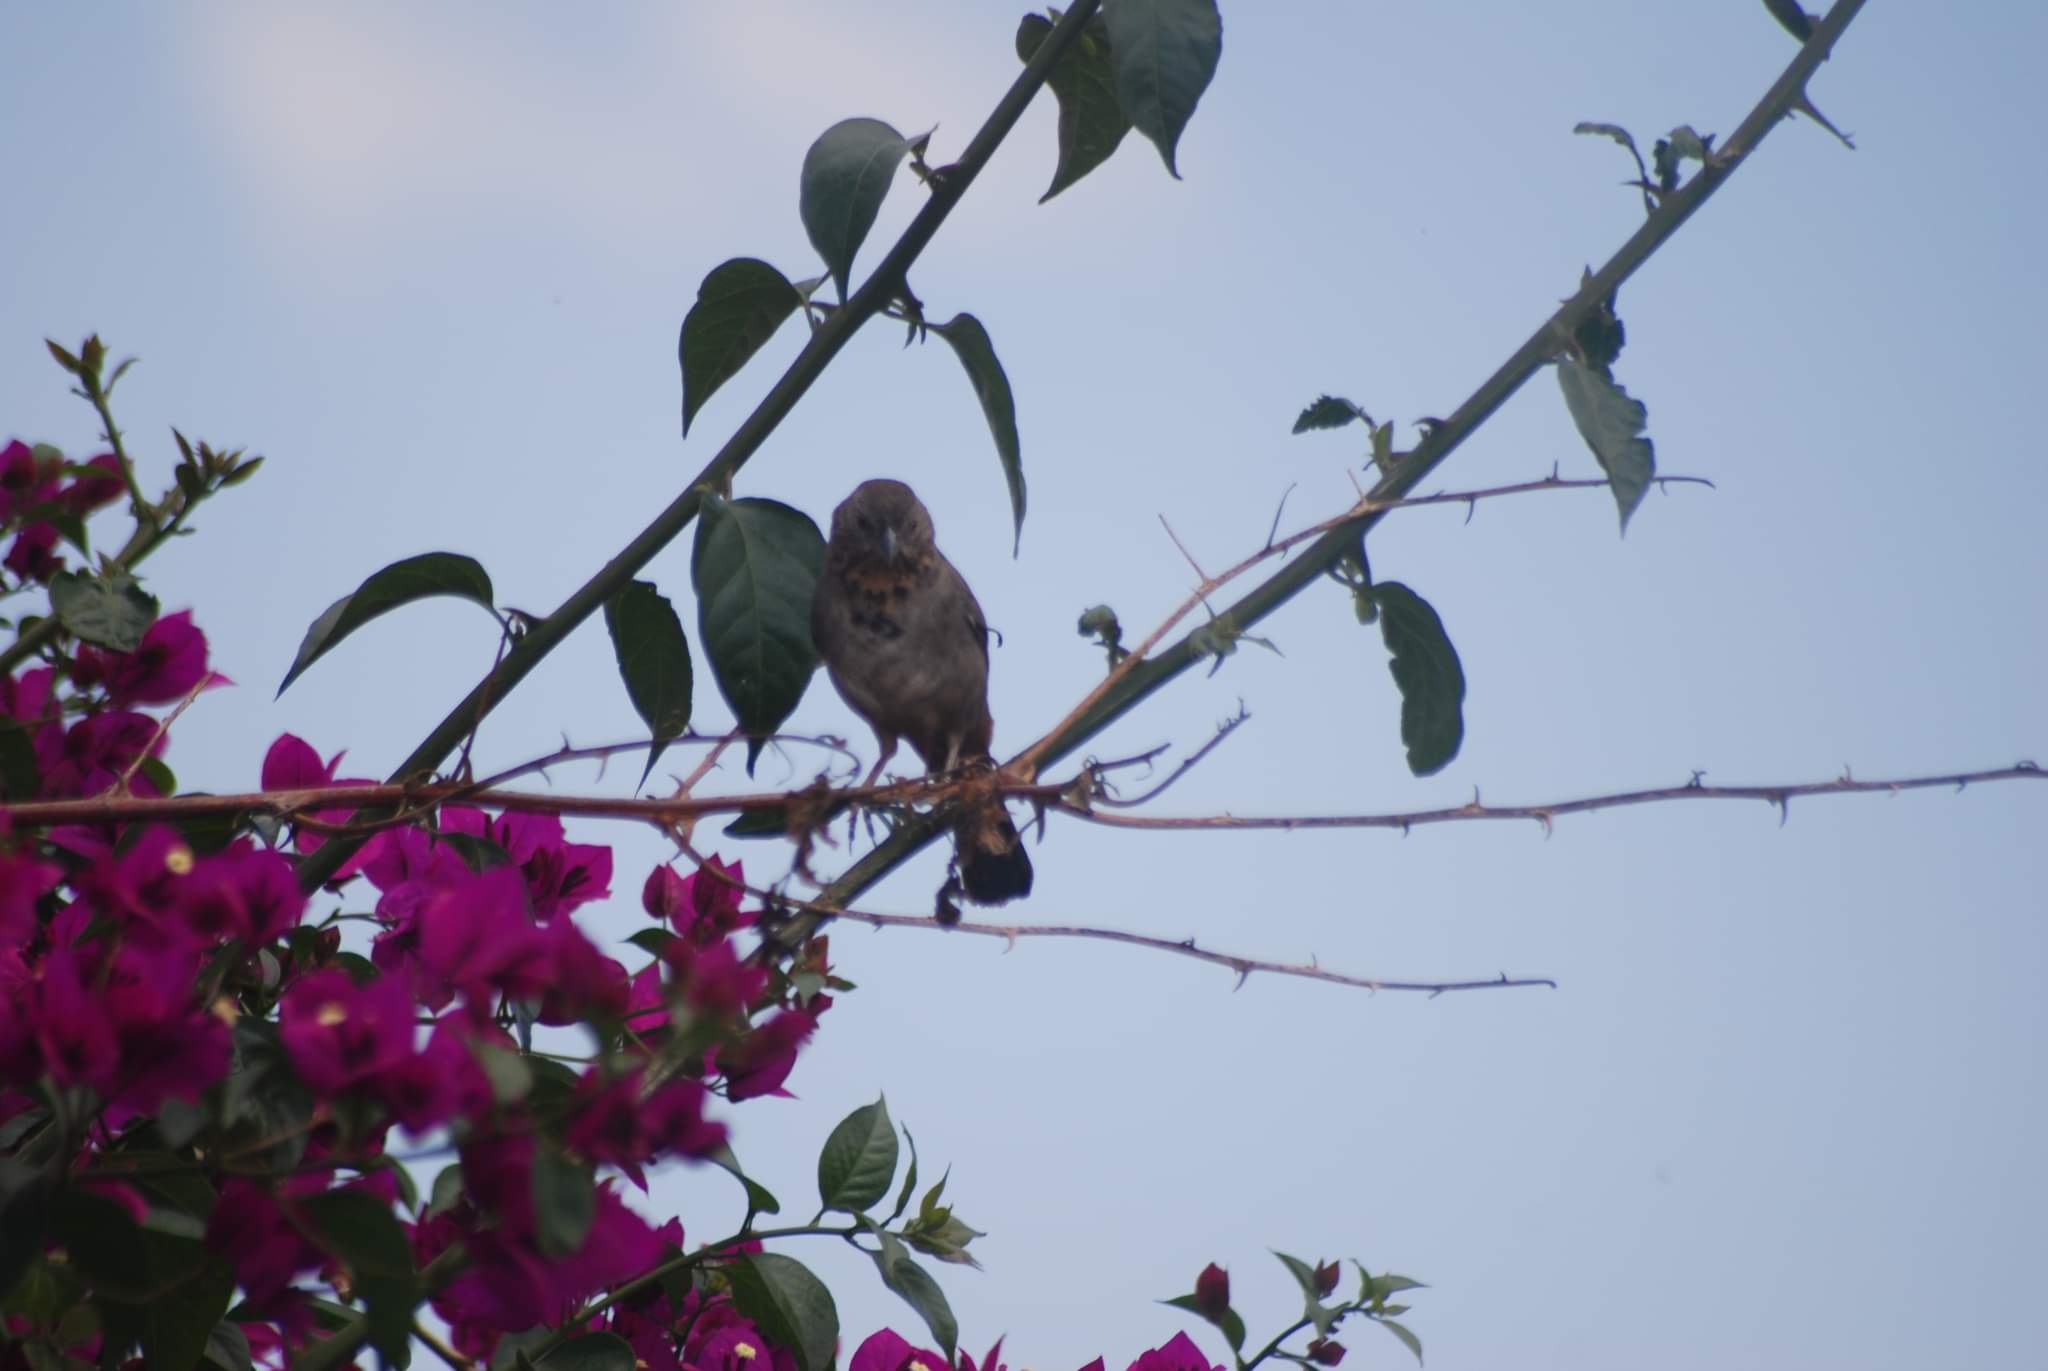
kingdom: Animalia
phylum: Chordata
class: Aves
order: Passeriformes
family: Passerellidae
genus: Melozone
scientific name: Melozone fusca
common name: Canyon towhee
